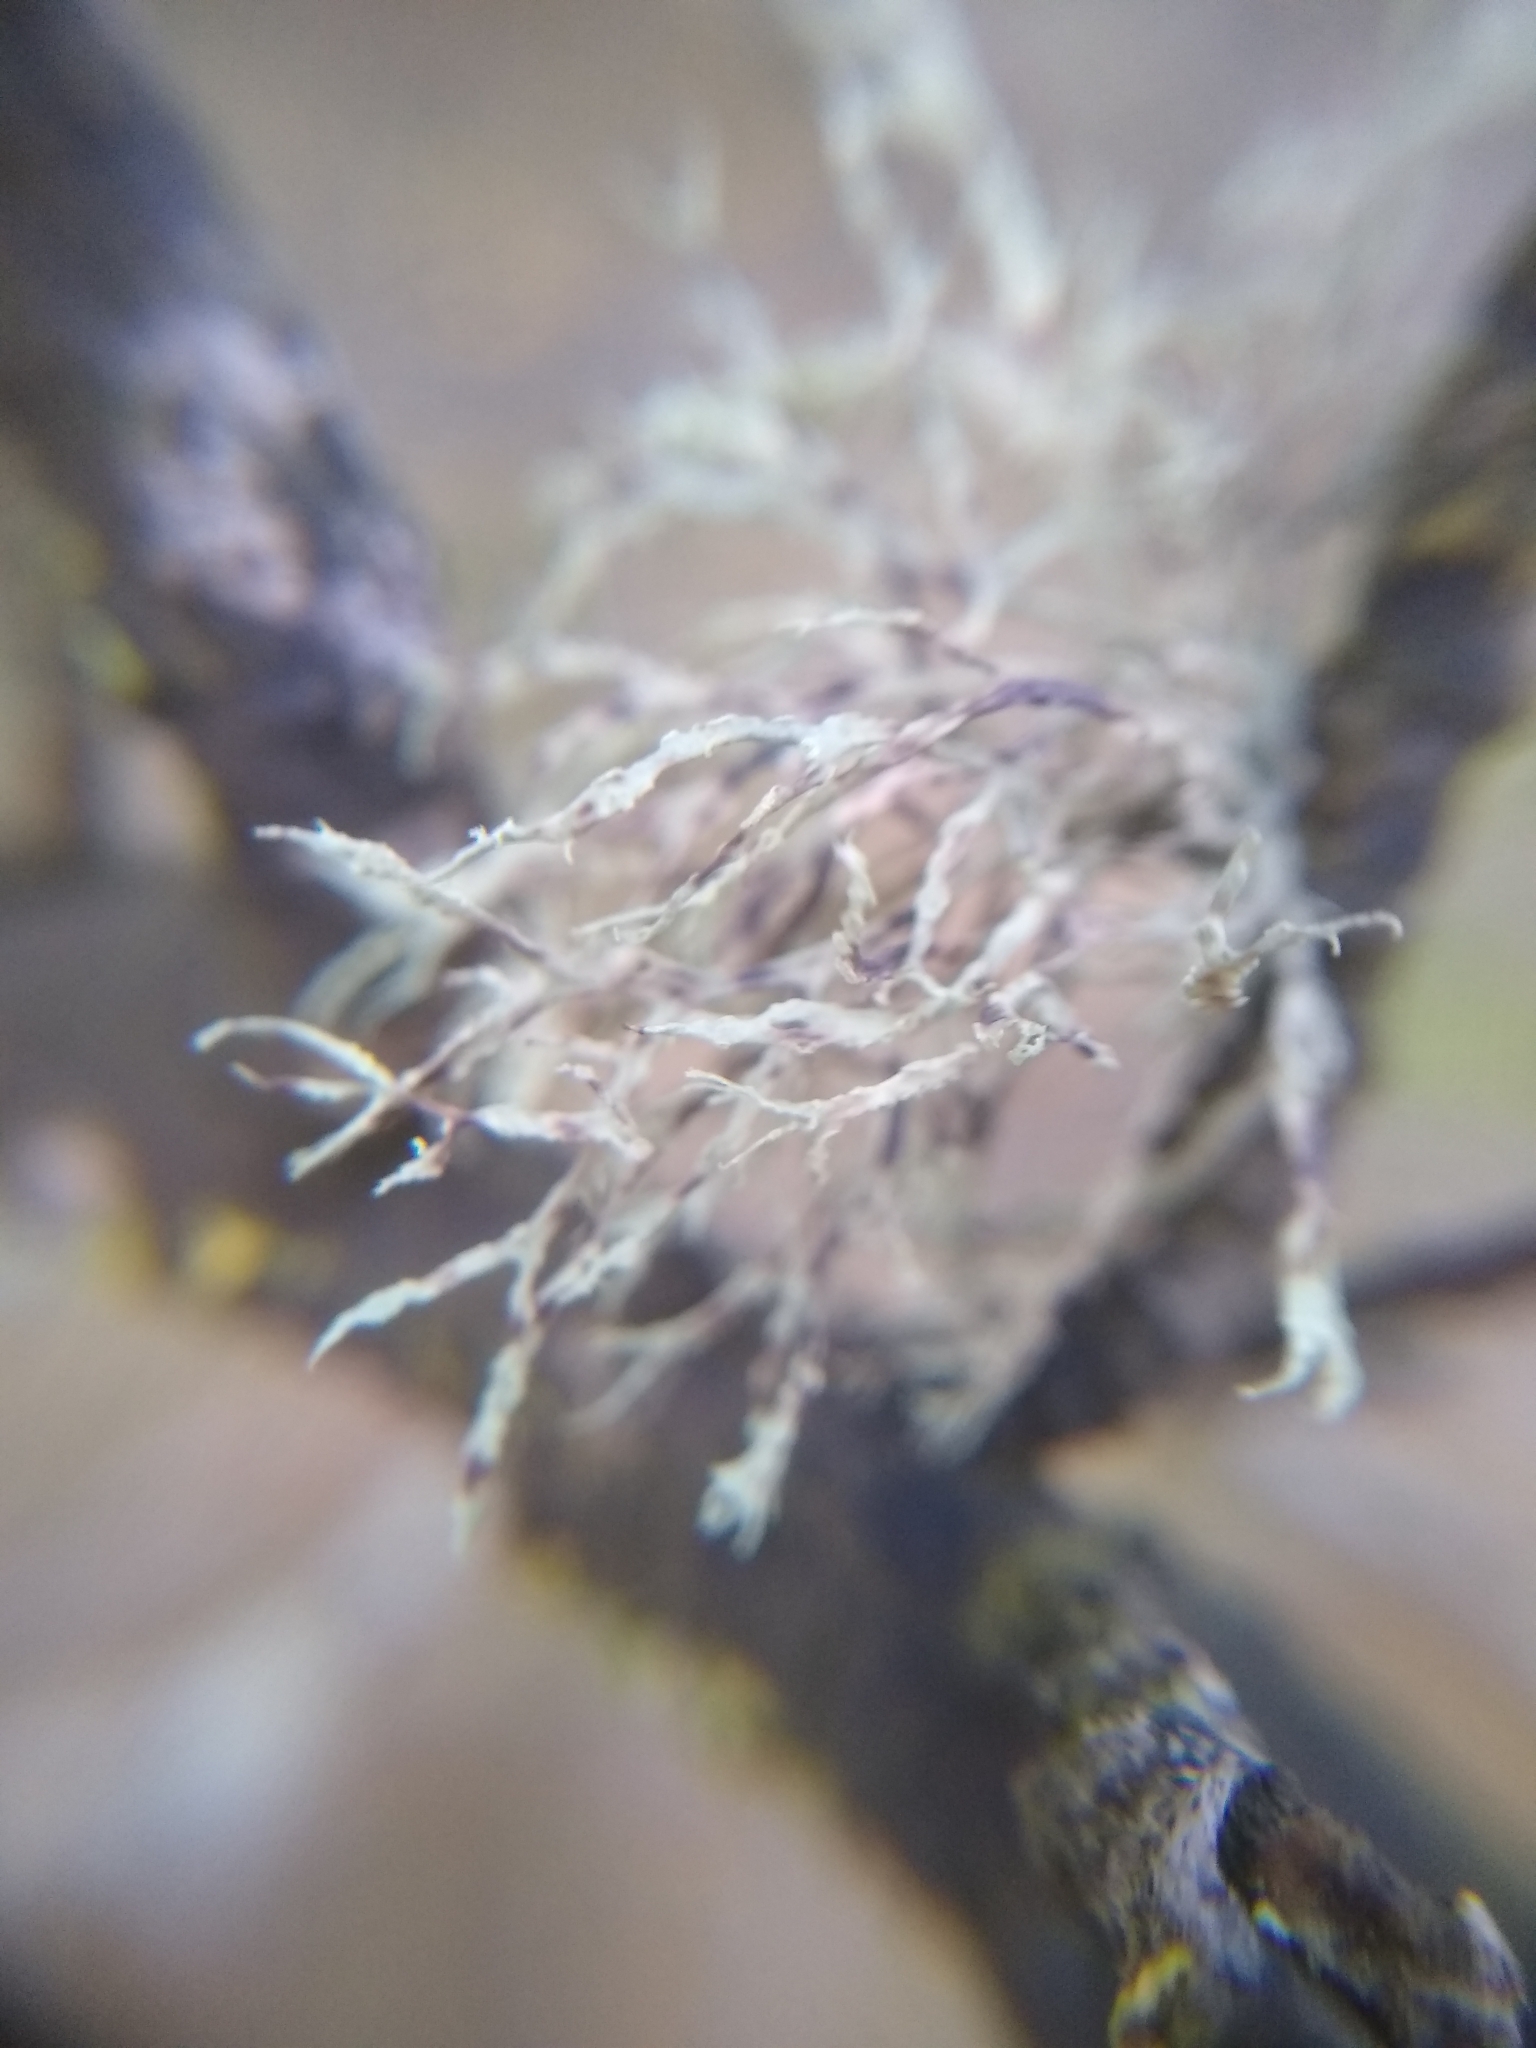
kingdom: Fungi
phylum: Ascomycota
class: Lecanoromycetes
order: Lecanorales
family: Ramalinaceae
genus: Ramalina
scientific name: Ramalina farinacea
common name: Farinose cartilage lichen
